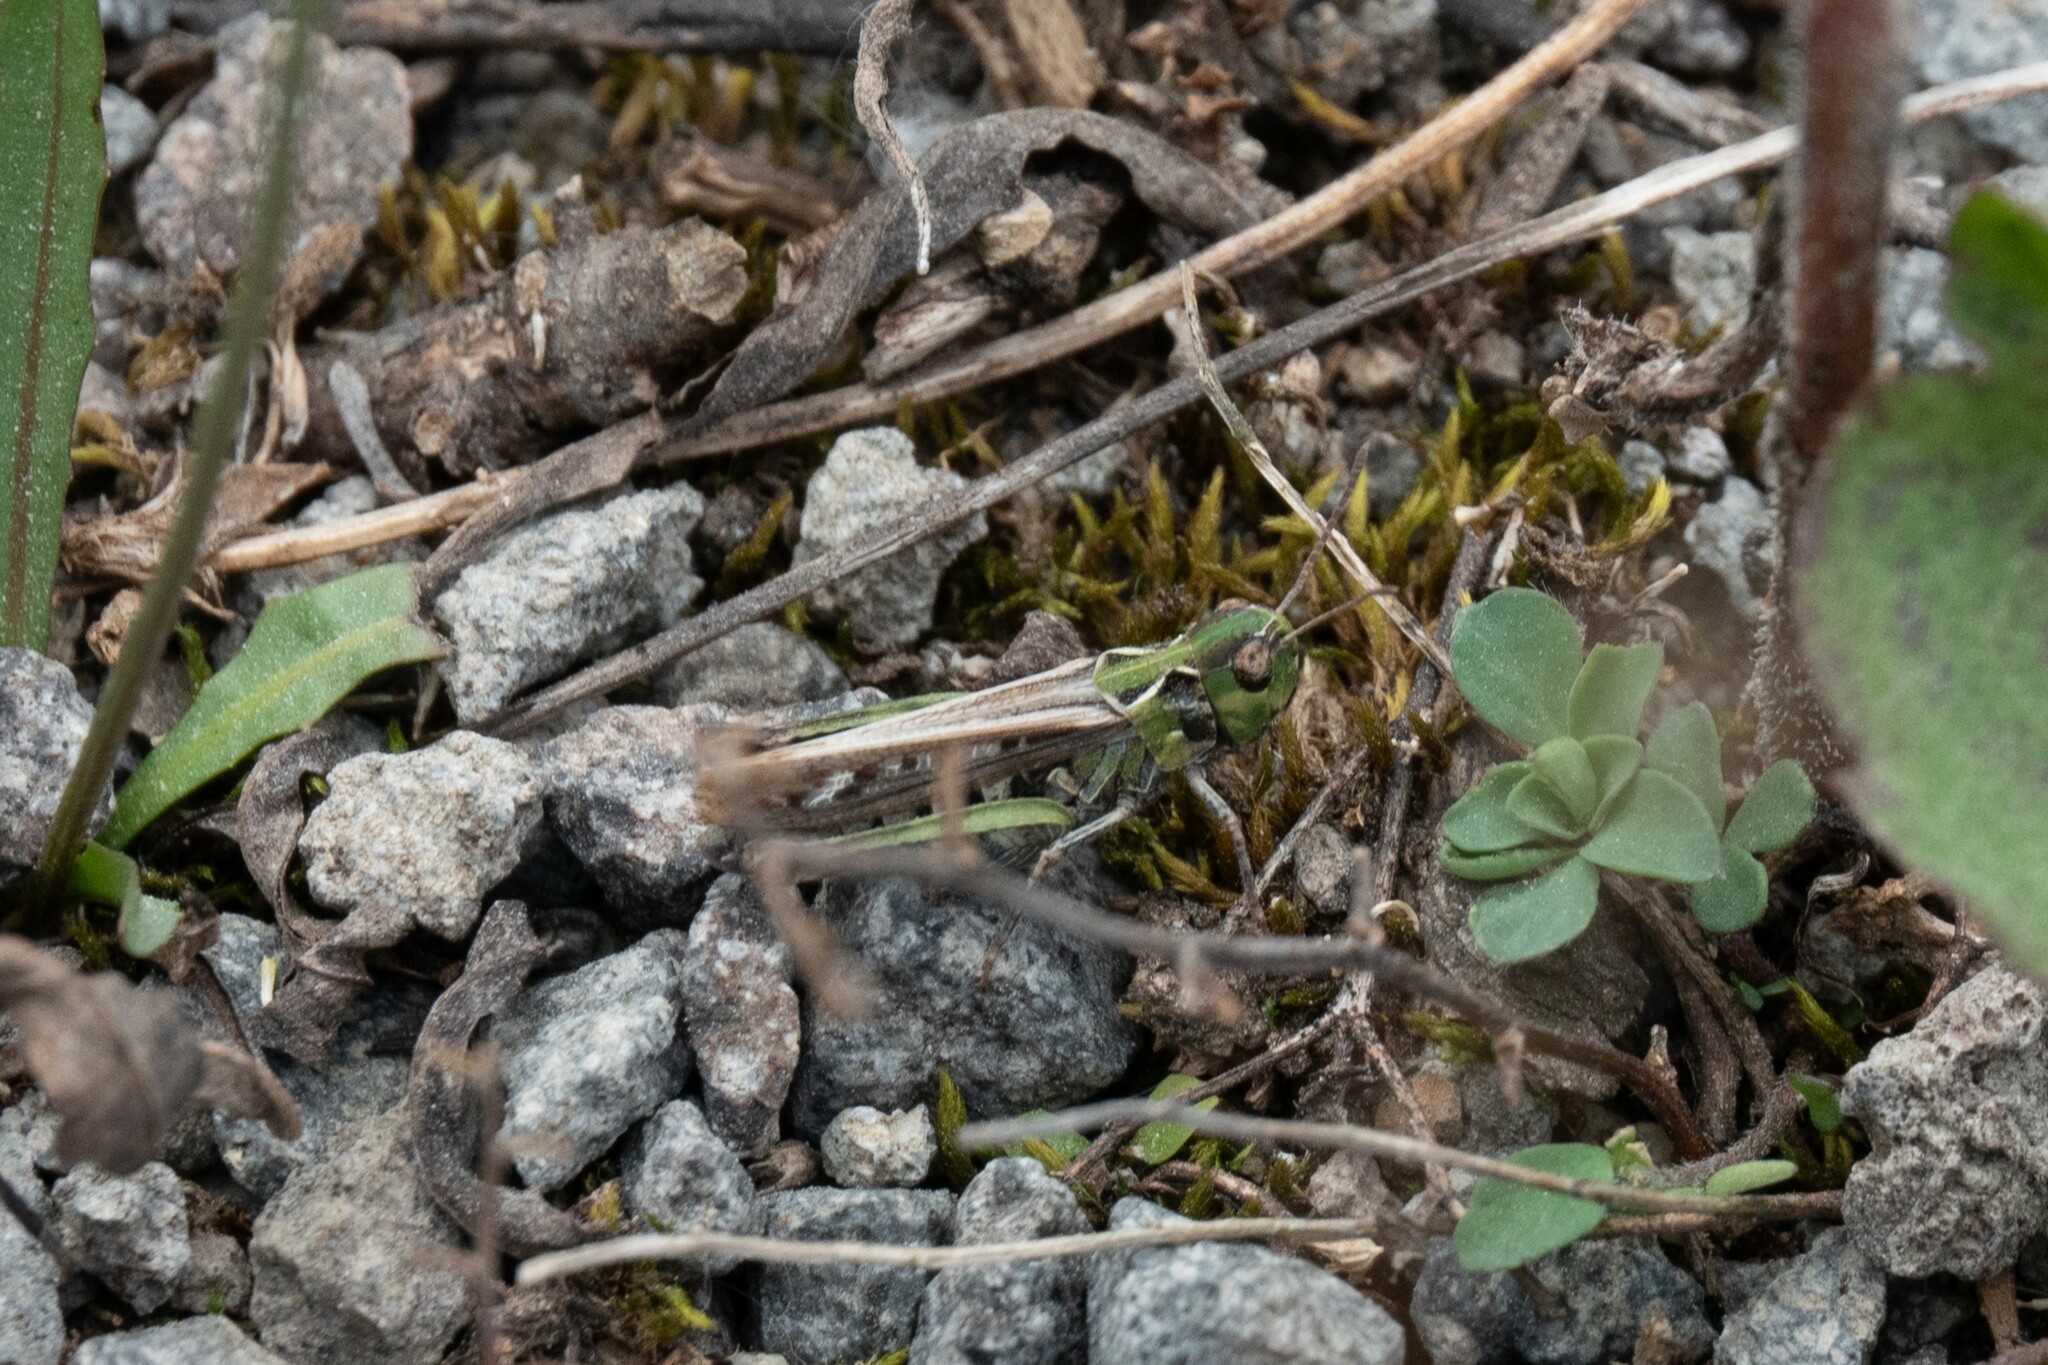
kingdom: Animalia
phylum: Arthropoda
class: Insecta
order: Orthoptera
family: Acrididae
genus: Myrmeleotettix
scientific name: Myrmeleotettix maculatus
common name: Mottled grasshopper
